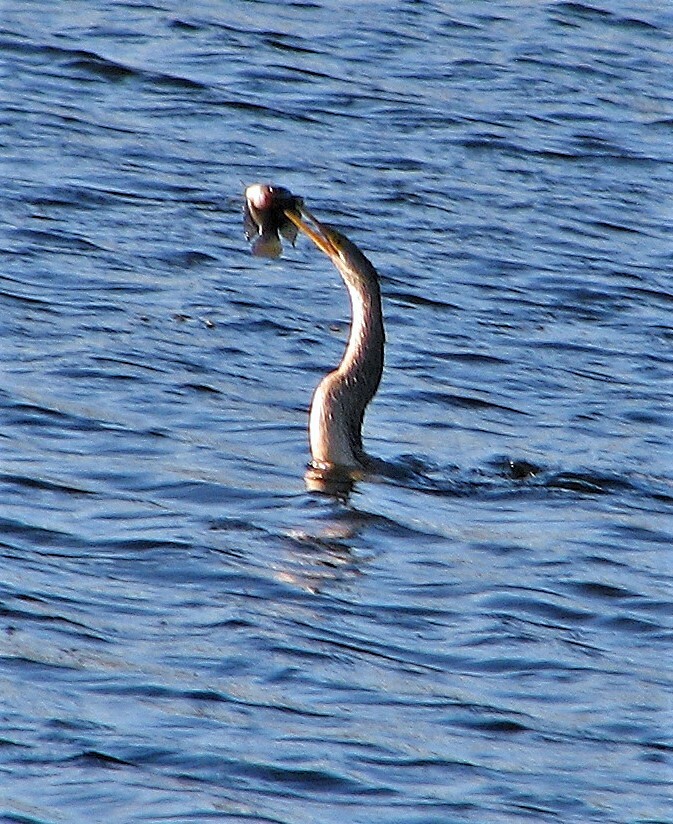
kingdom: Animalia
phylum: Chordata
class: Aves
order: Suliformes
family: Anhingidae
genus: Anhinga
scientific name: Anhinga anhinga
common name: Anhinga
